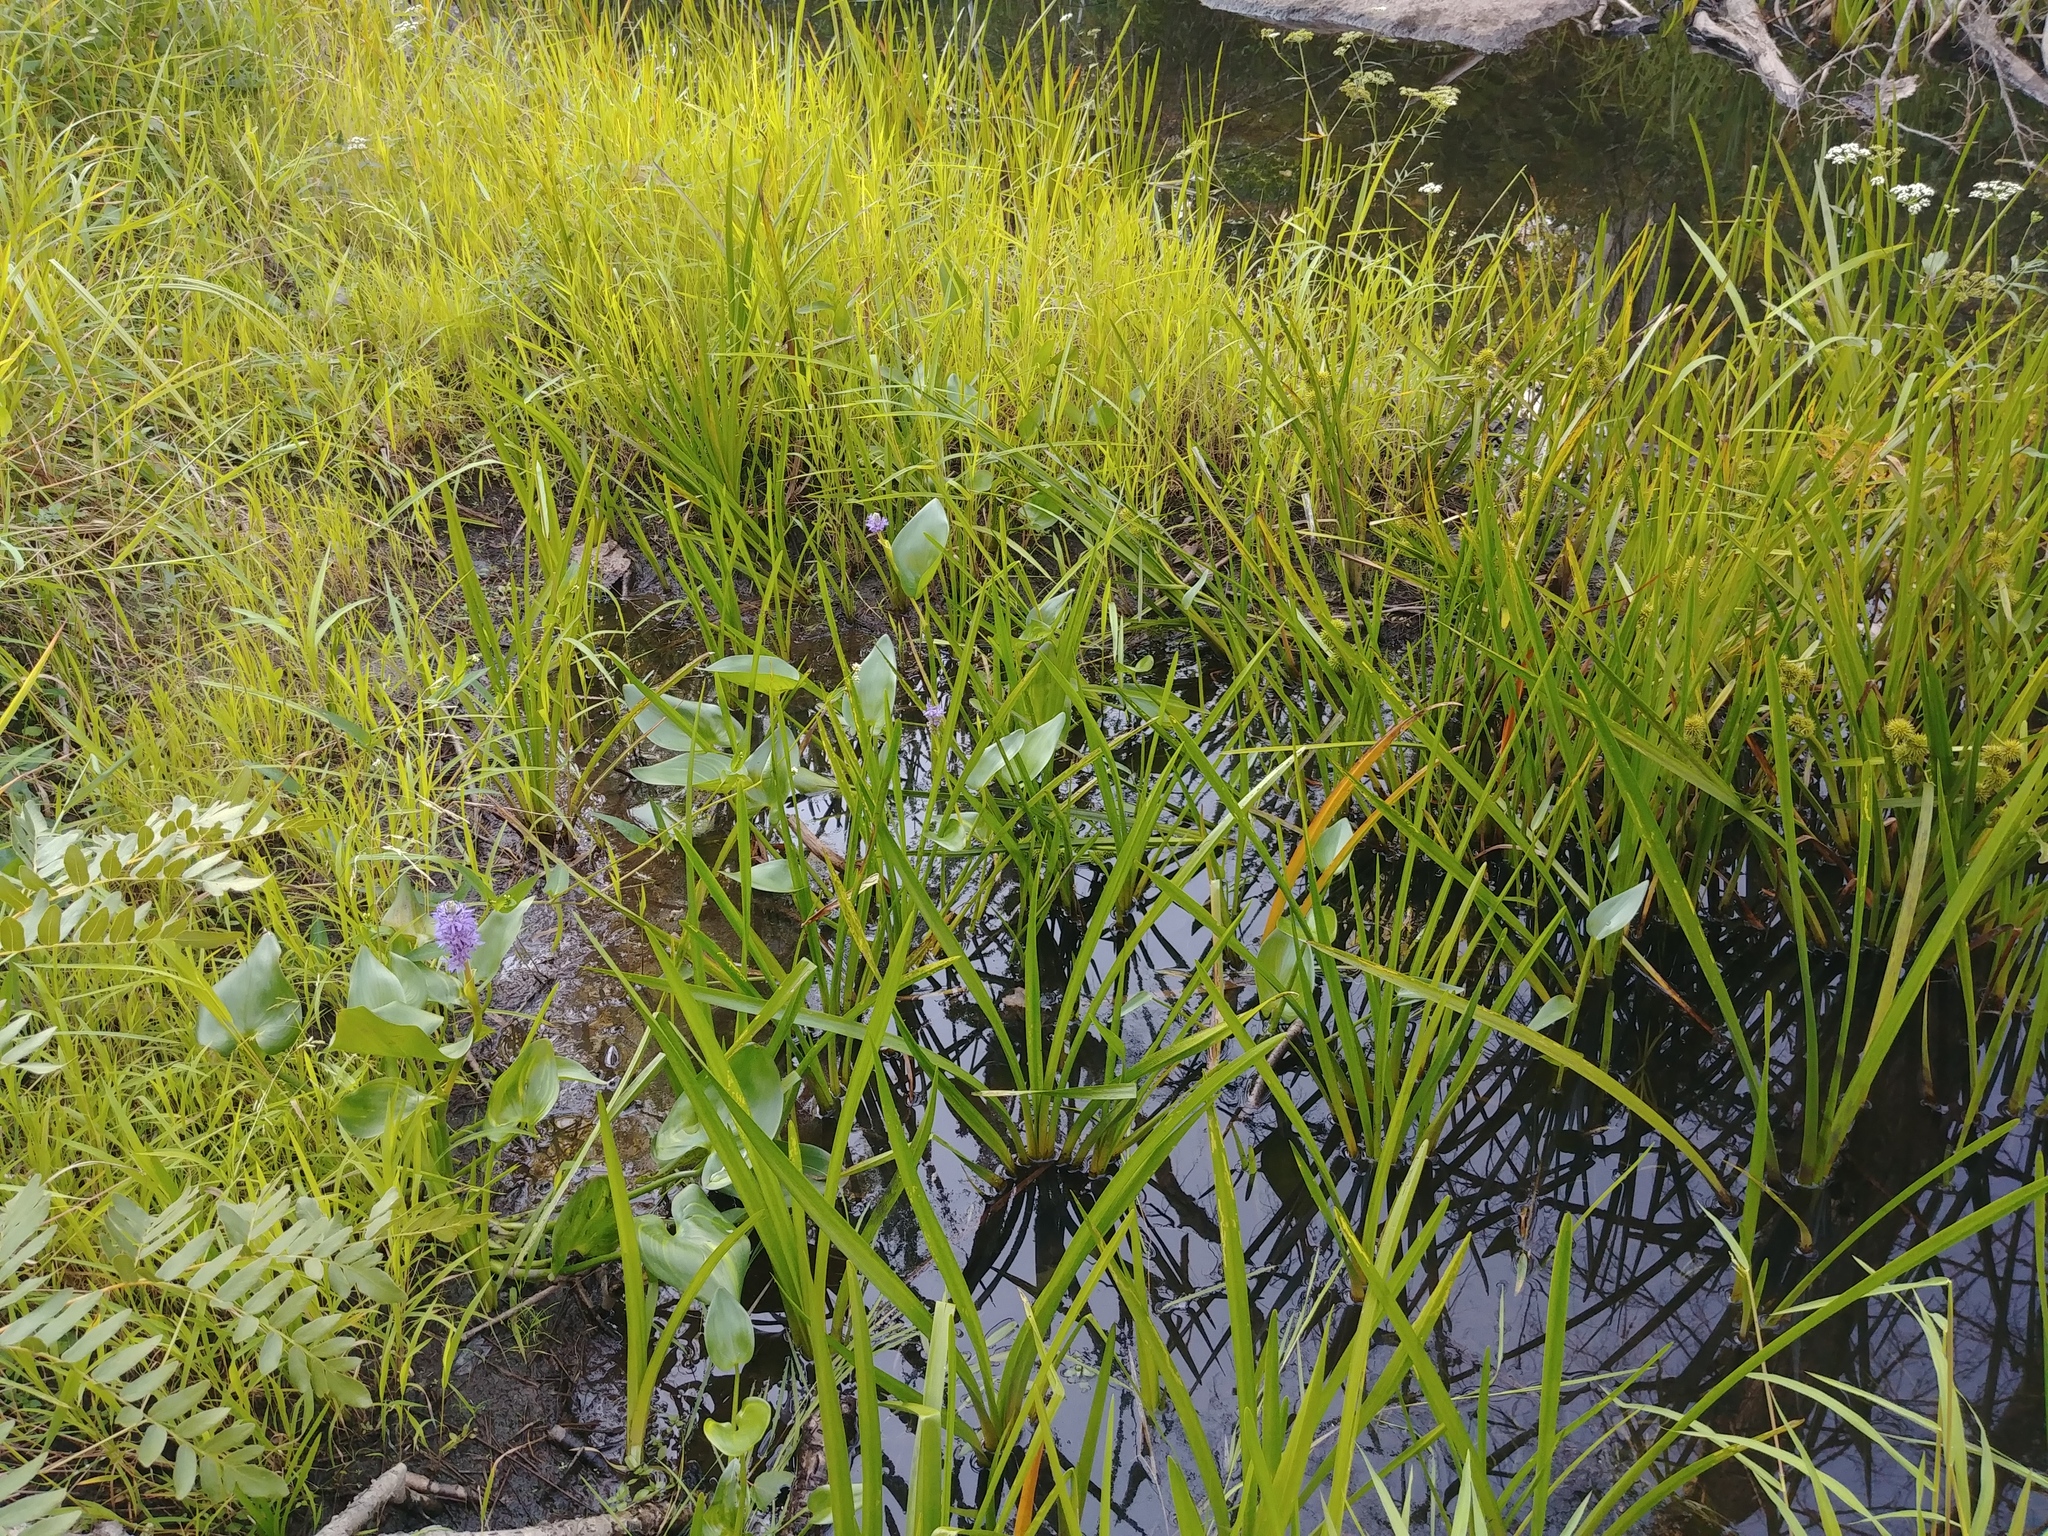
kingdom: Plantae
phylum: Tracheophyta
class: Liliopsida
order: Commelinales
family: Pontederiaceae
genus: Pontederia
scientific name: Pontederia cordata
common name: Pickerelweed
